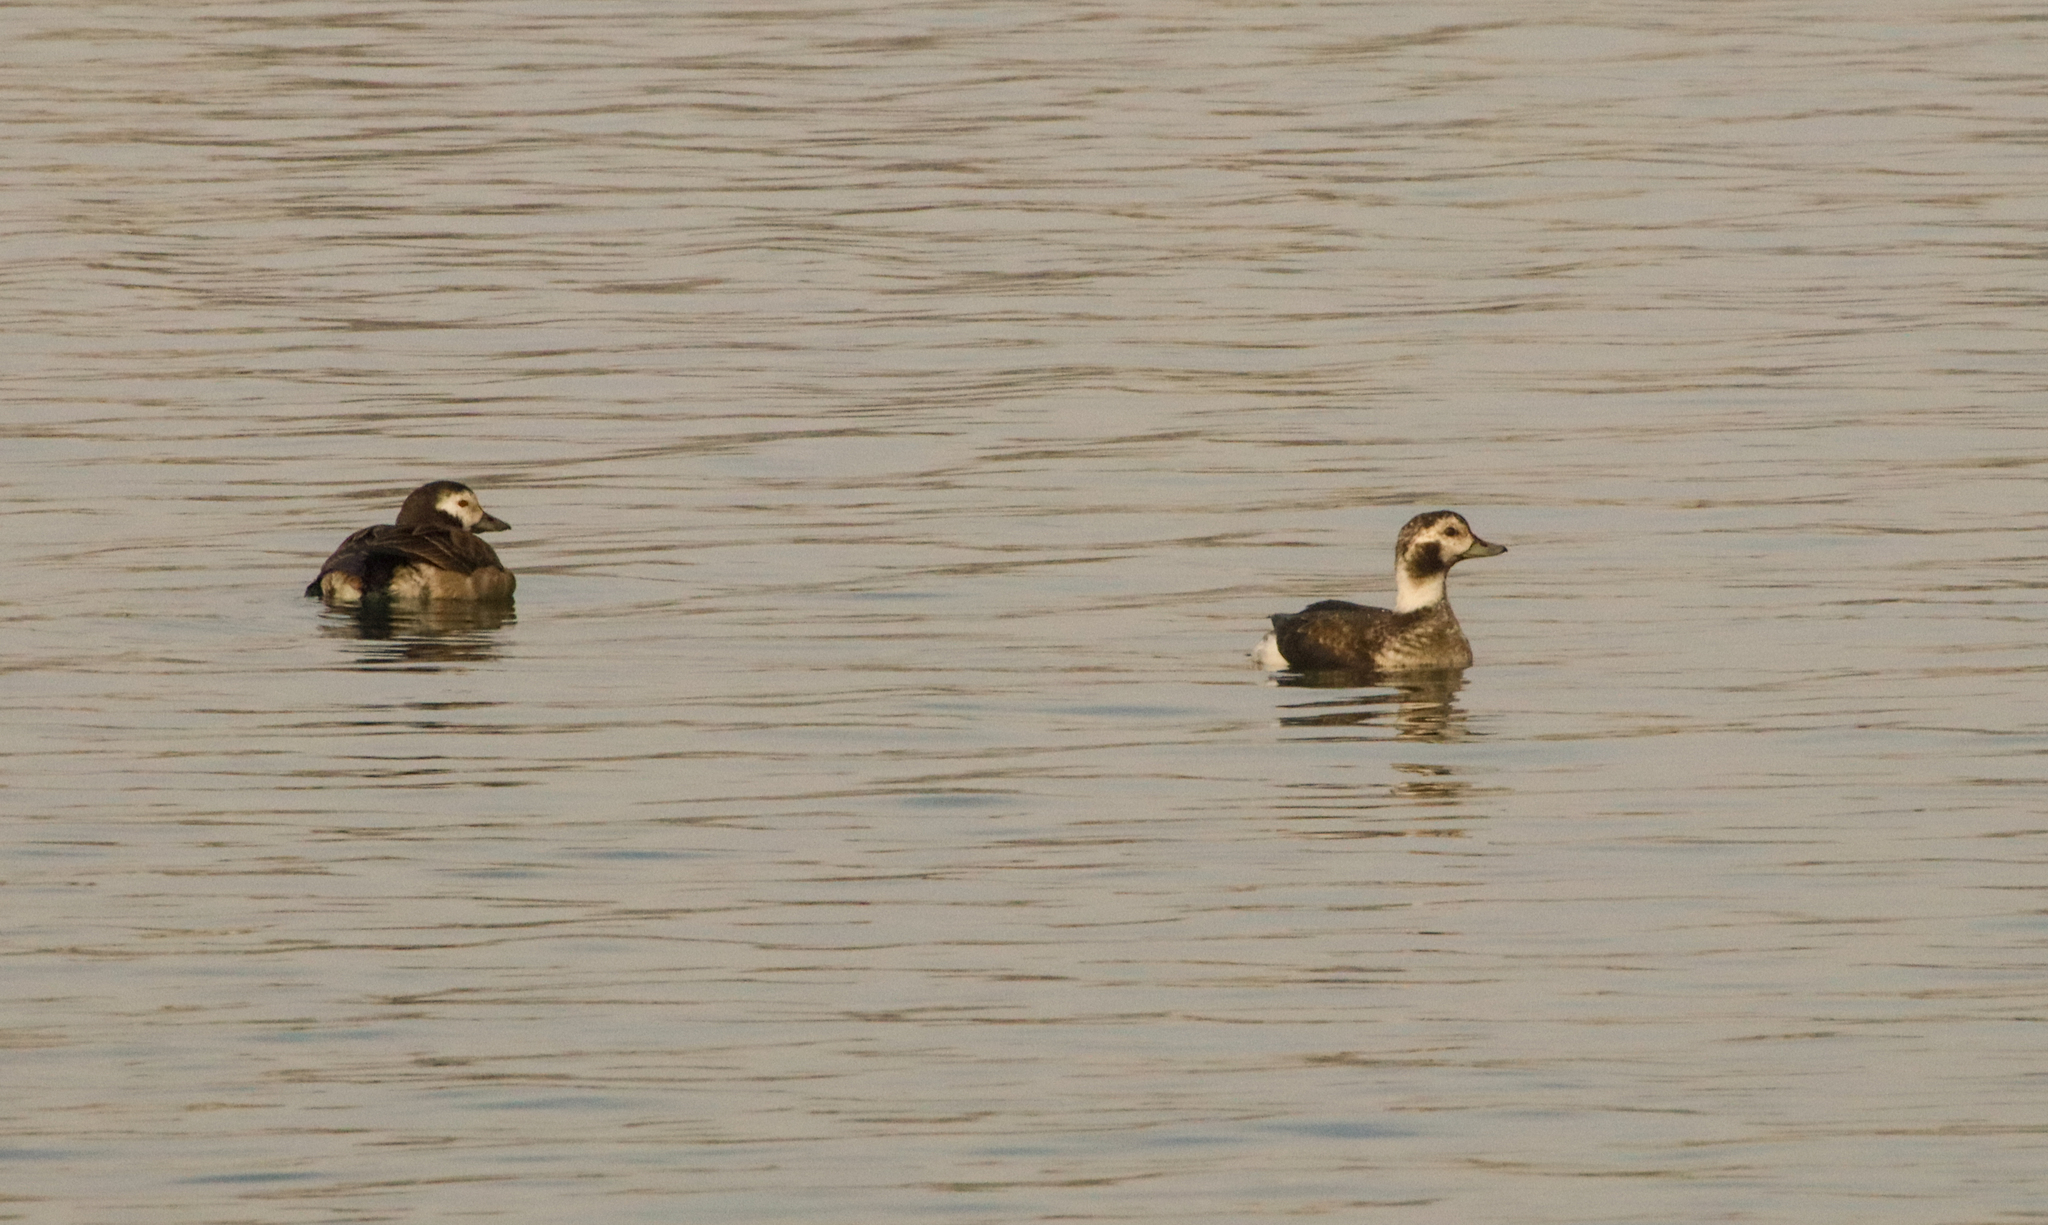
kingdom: Animalia
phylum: Chordata
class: Aves
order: Anseriformes
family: Anatidae
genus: Clangula
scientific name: Clangula hyemalis
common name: Long-tailed duck
